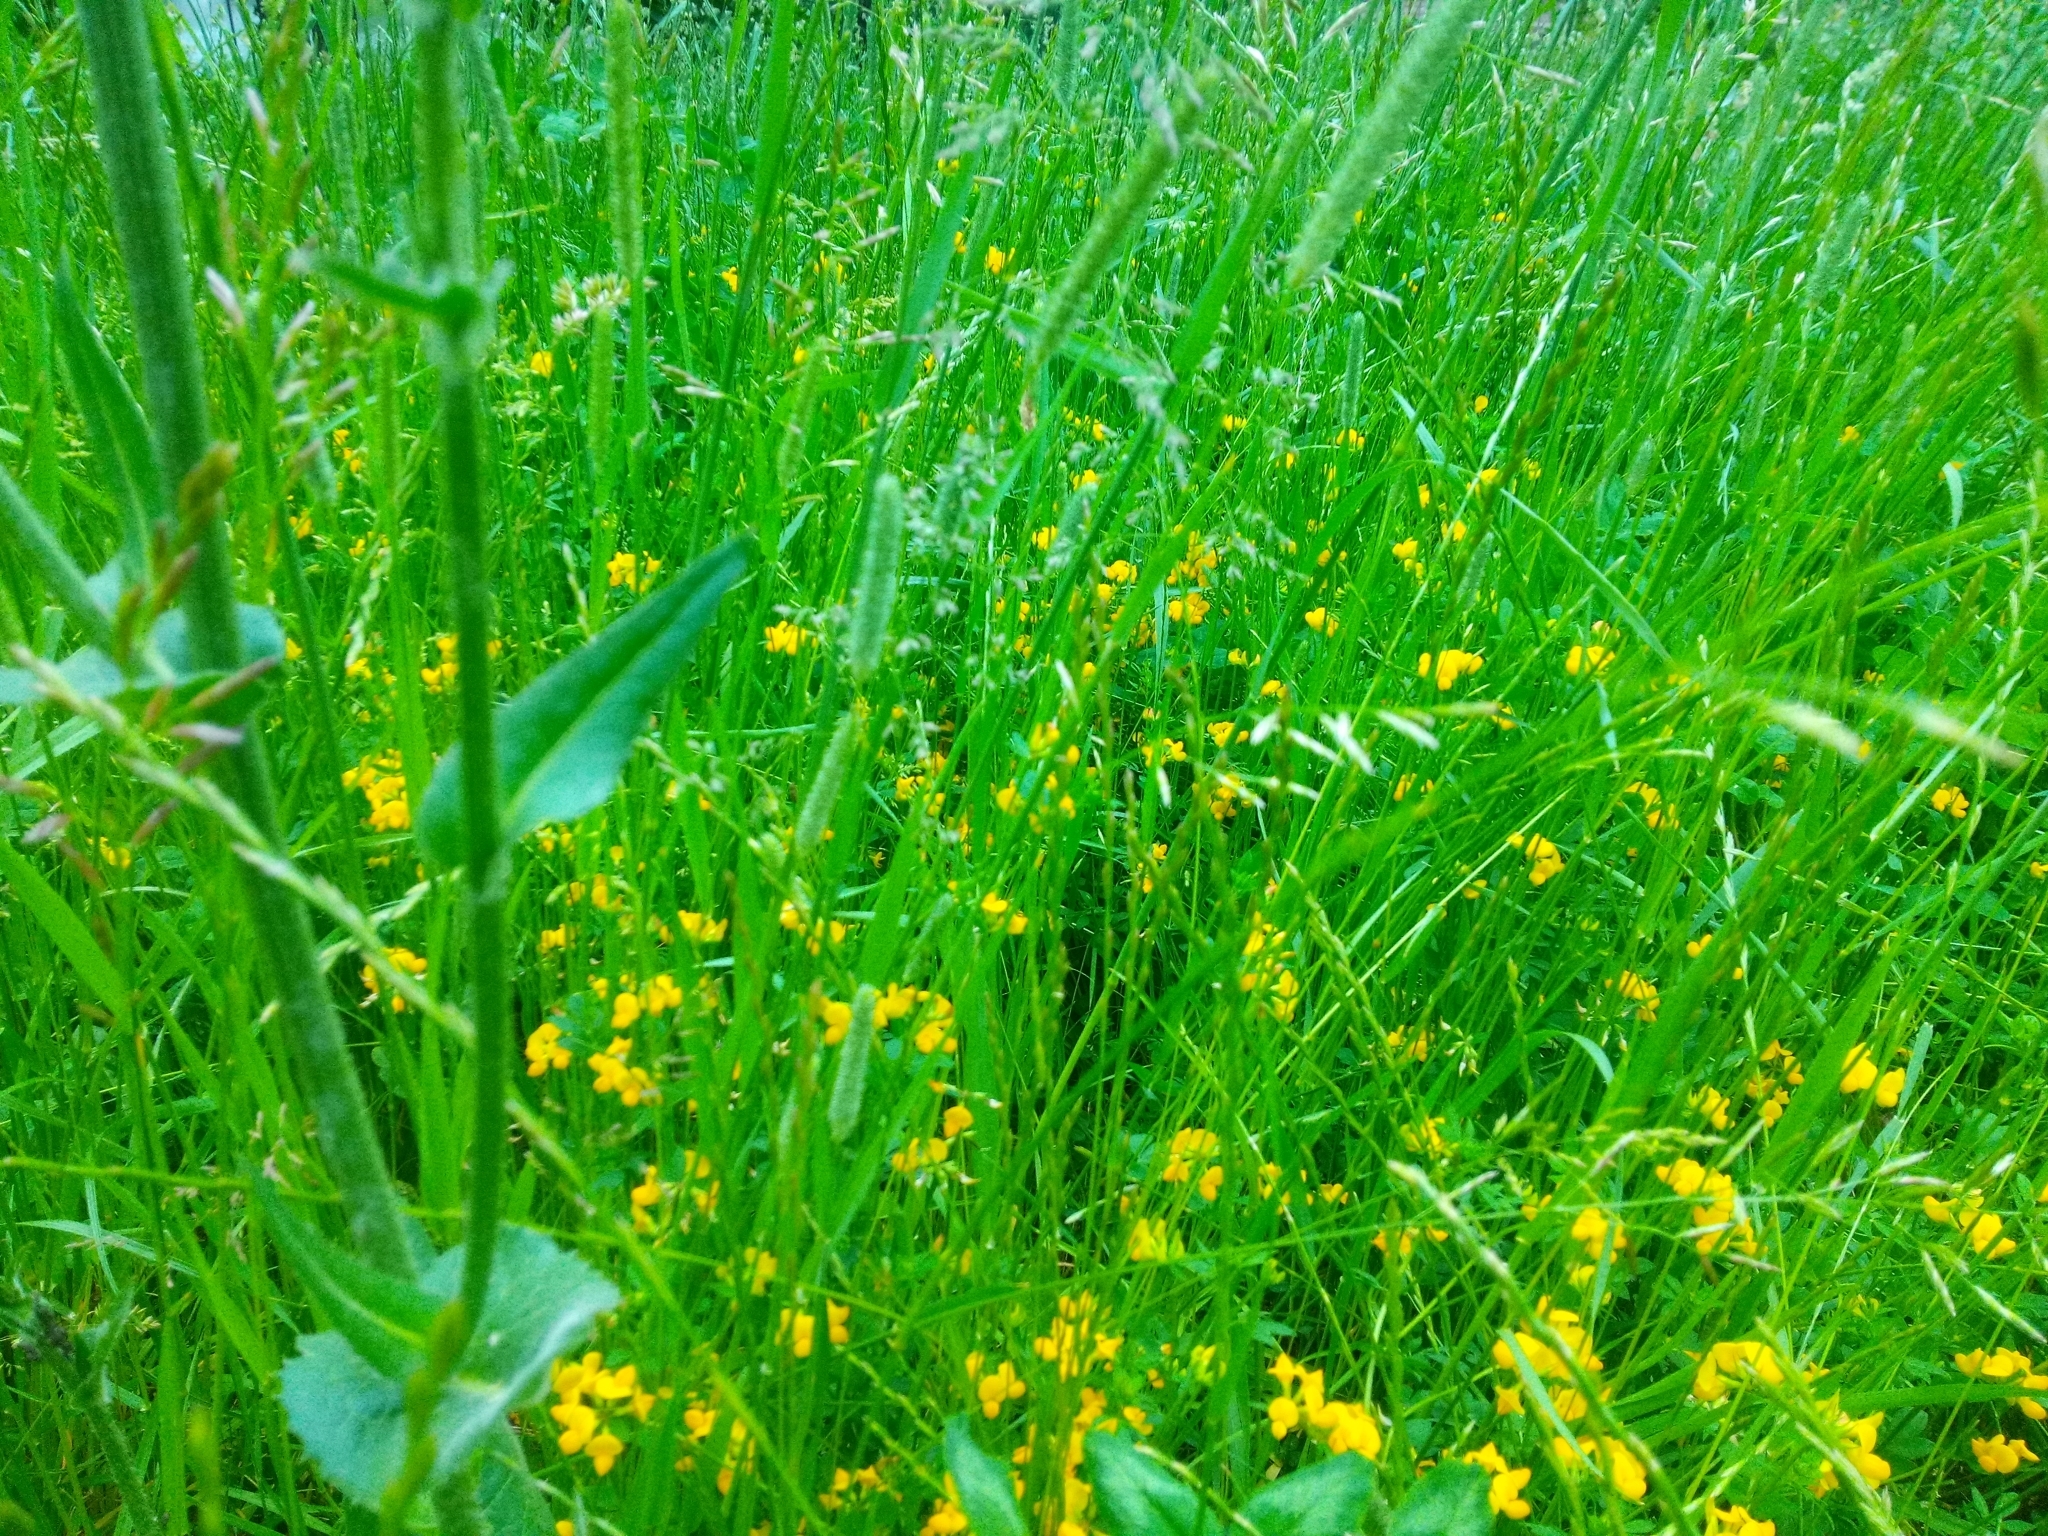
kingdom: Plantae
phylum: Tracheophyta
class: Magnoliopsida
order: Fabales
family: Fabaceae
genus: Lotus
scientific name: Lotus corniculatus
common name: Common bird's-foot-trefoil
